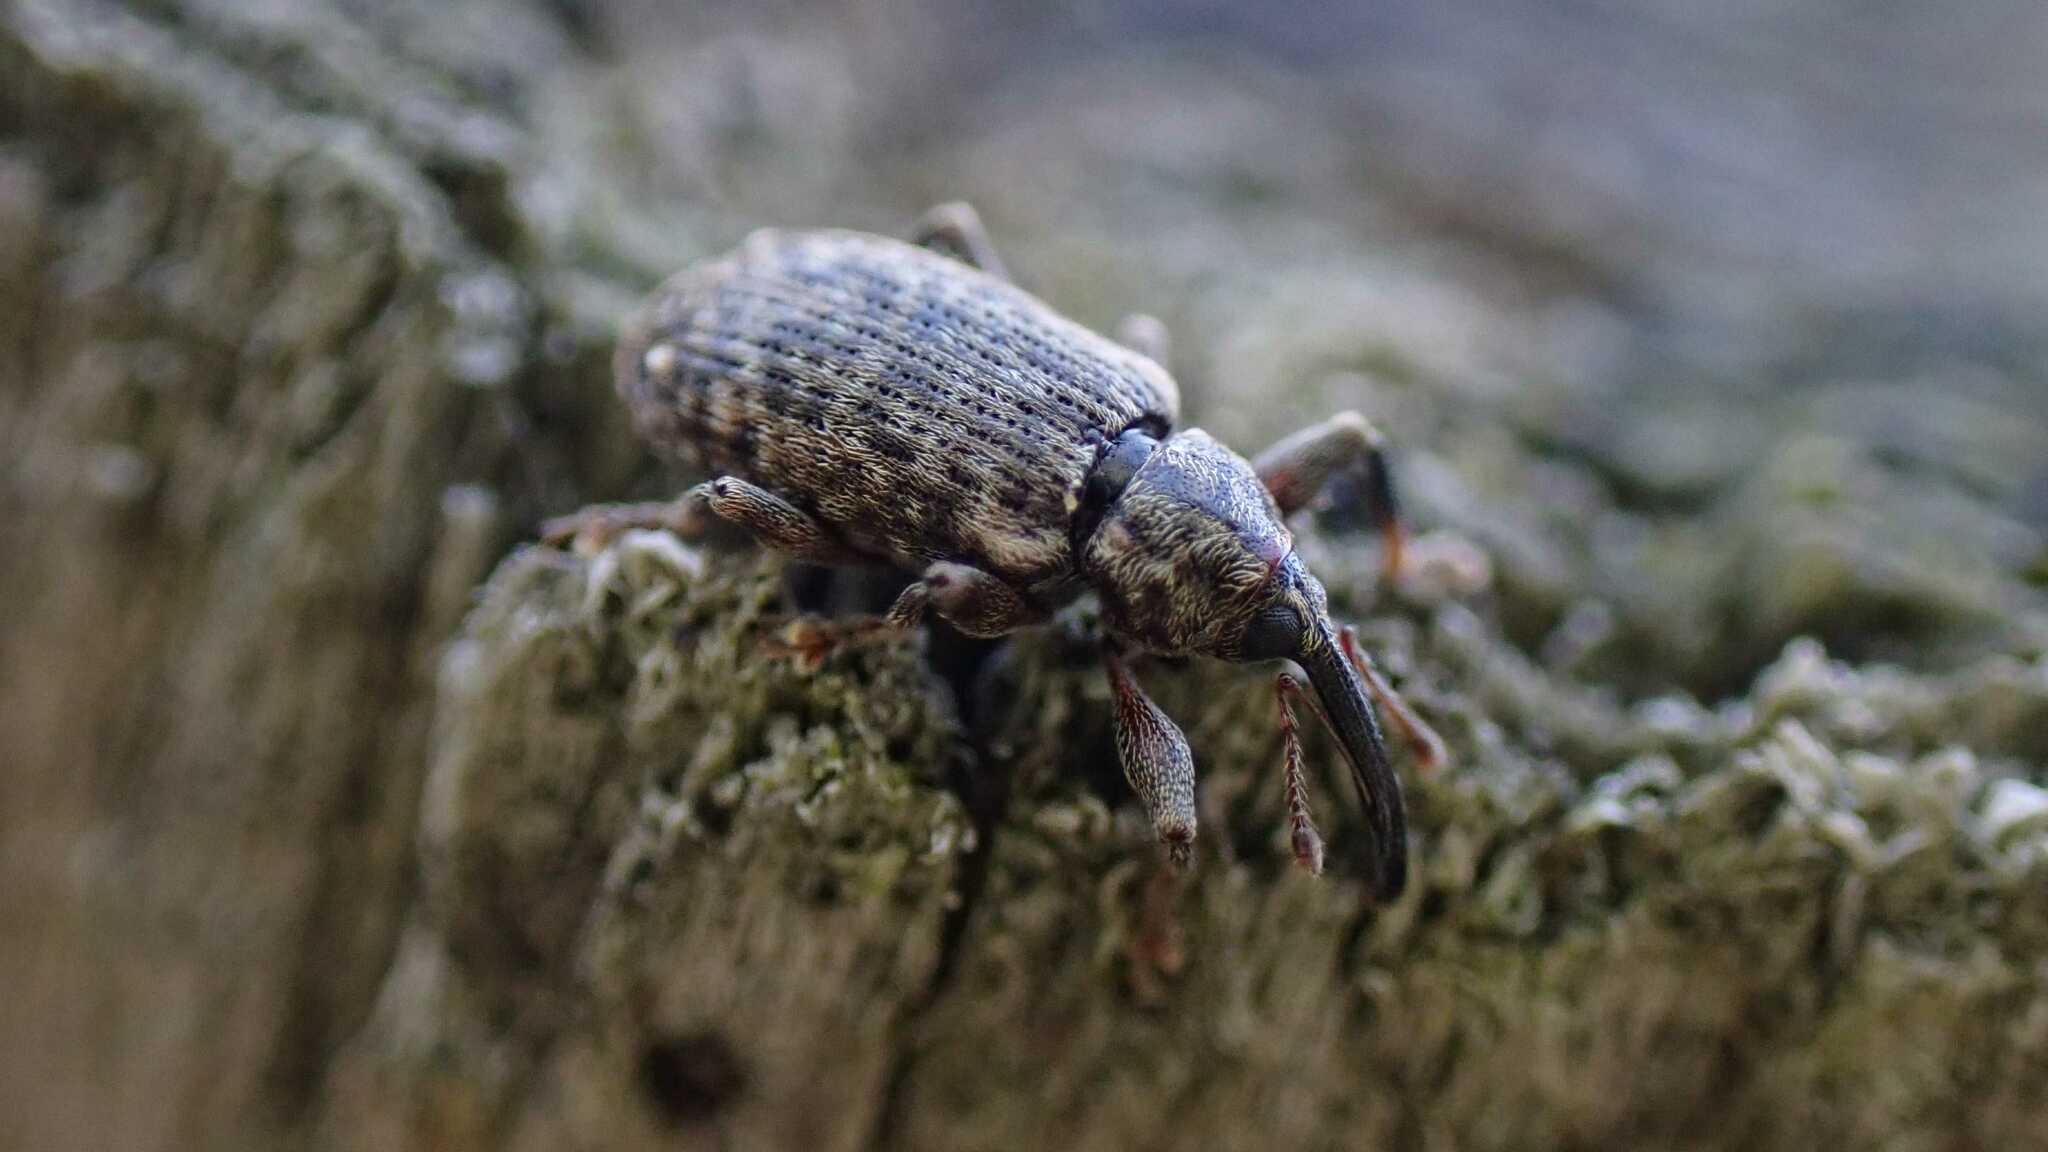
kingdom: Animalia
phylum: Arthropoda
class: Insecta
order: Coleoptera
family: Curculionidae
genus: Dorytomus
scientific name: Dorytomus longimanus
